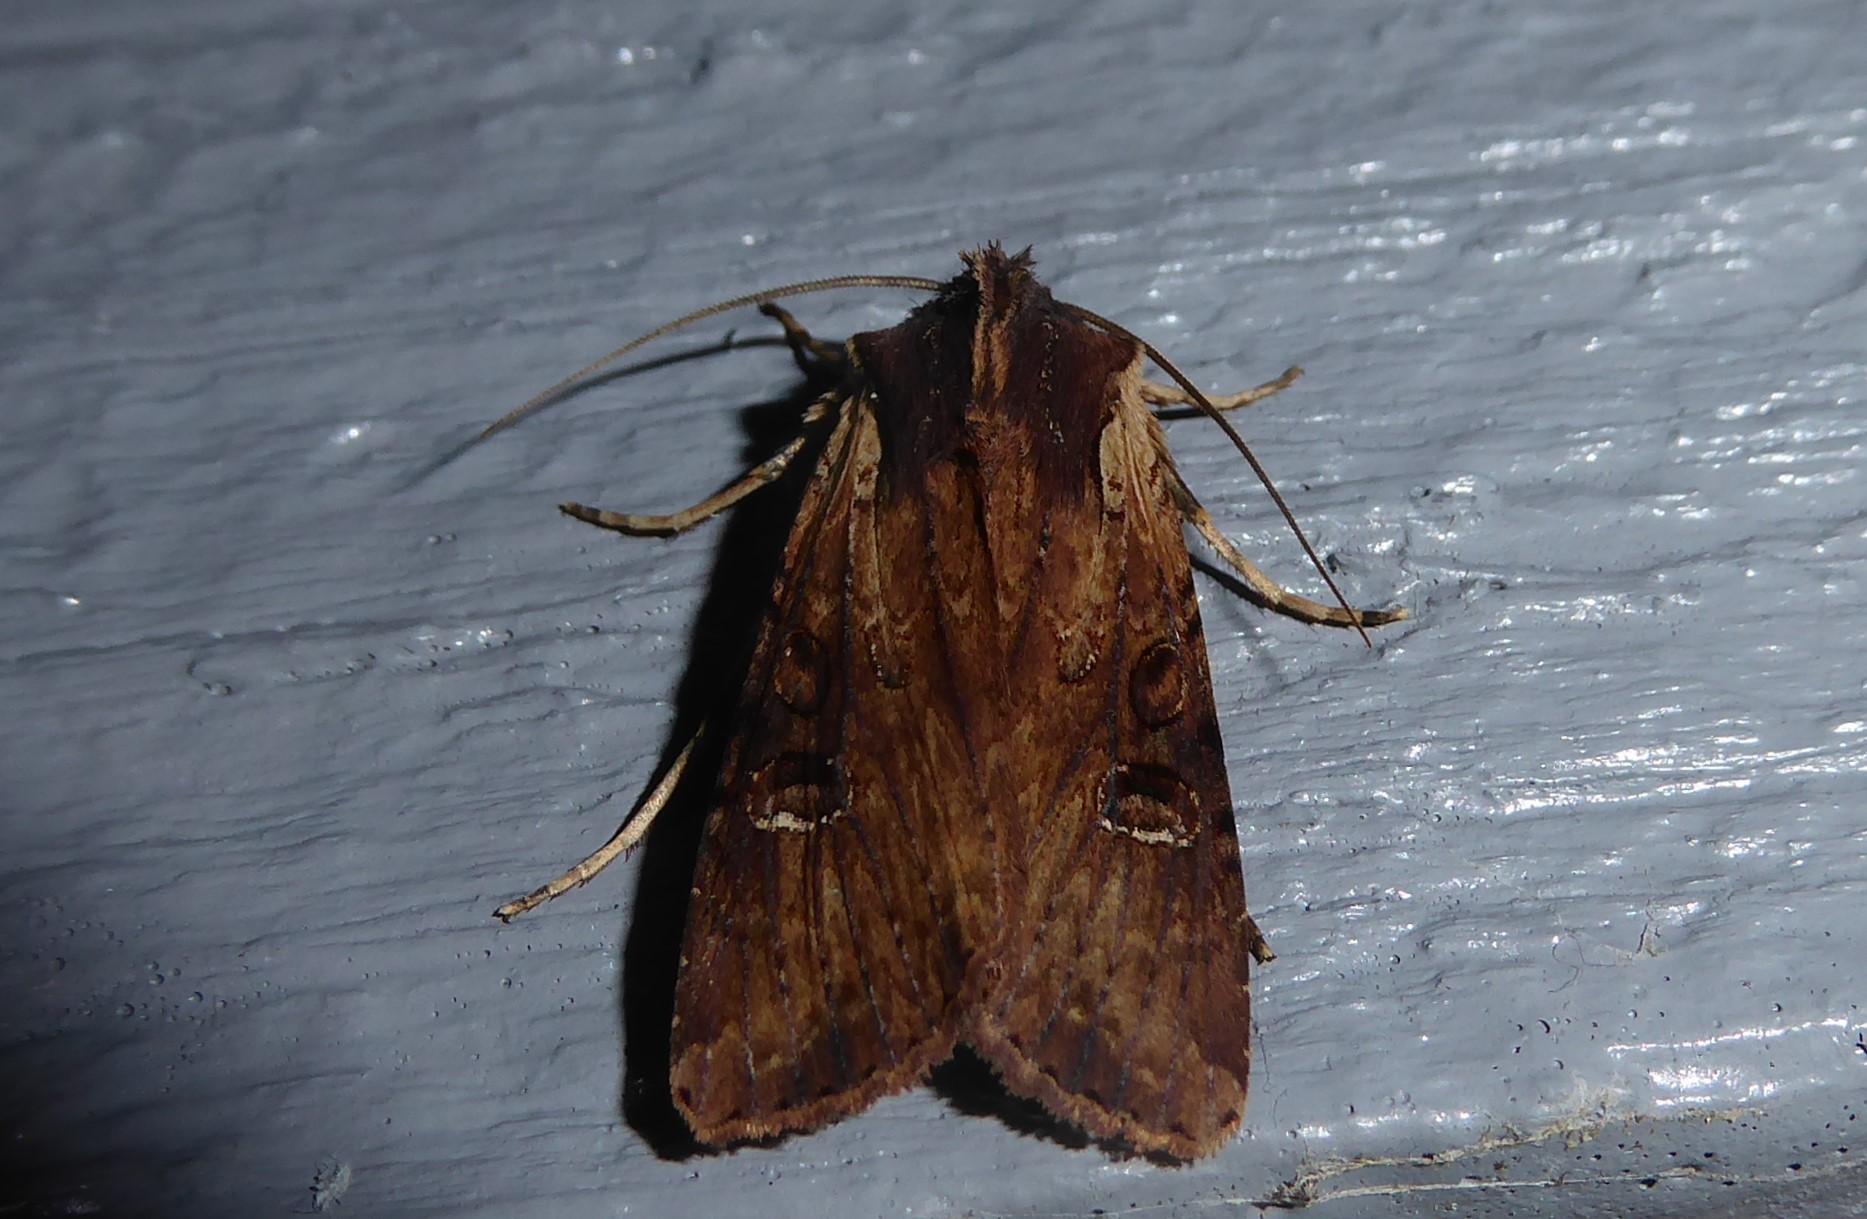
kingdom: Animalia
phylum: Arthropoda
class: Insecta
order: Lepidoptera
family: Noctuidae
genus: Ichneutica
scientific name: Ichneutica omoplaca
